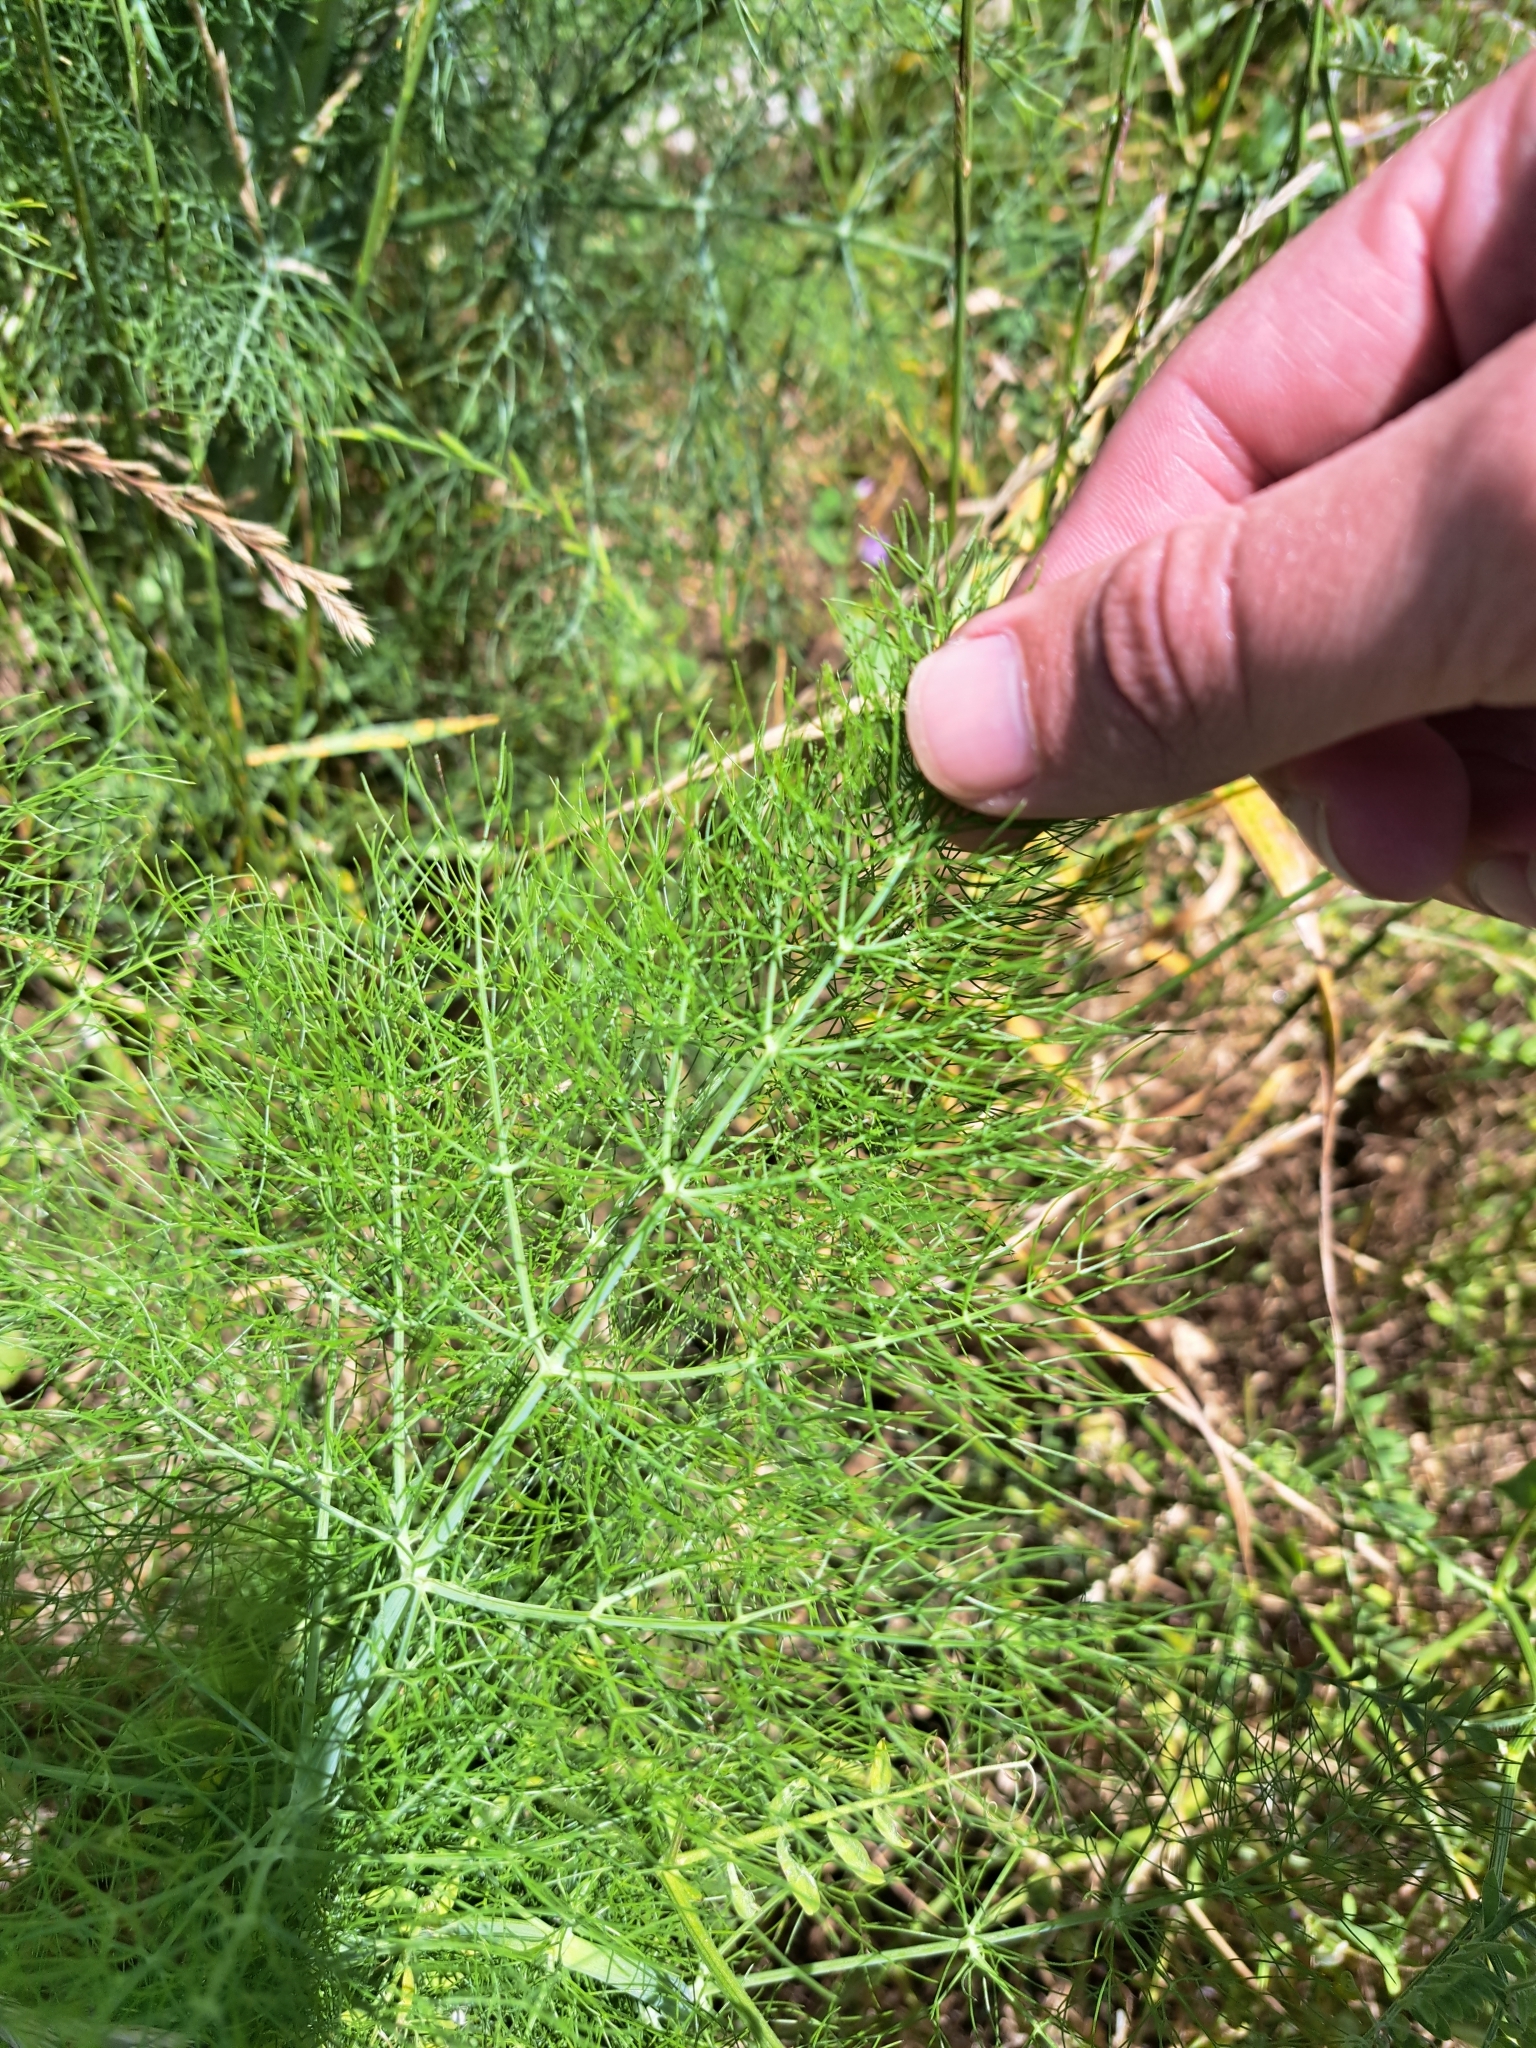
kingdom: Plantae
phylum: Tracheophyta
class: Magnoliopsida
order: Apiales
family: Apiaceae
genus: Foeniculum
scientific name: Foeniculum vulgare
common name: Fennel
